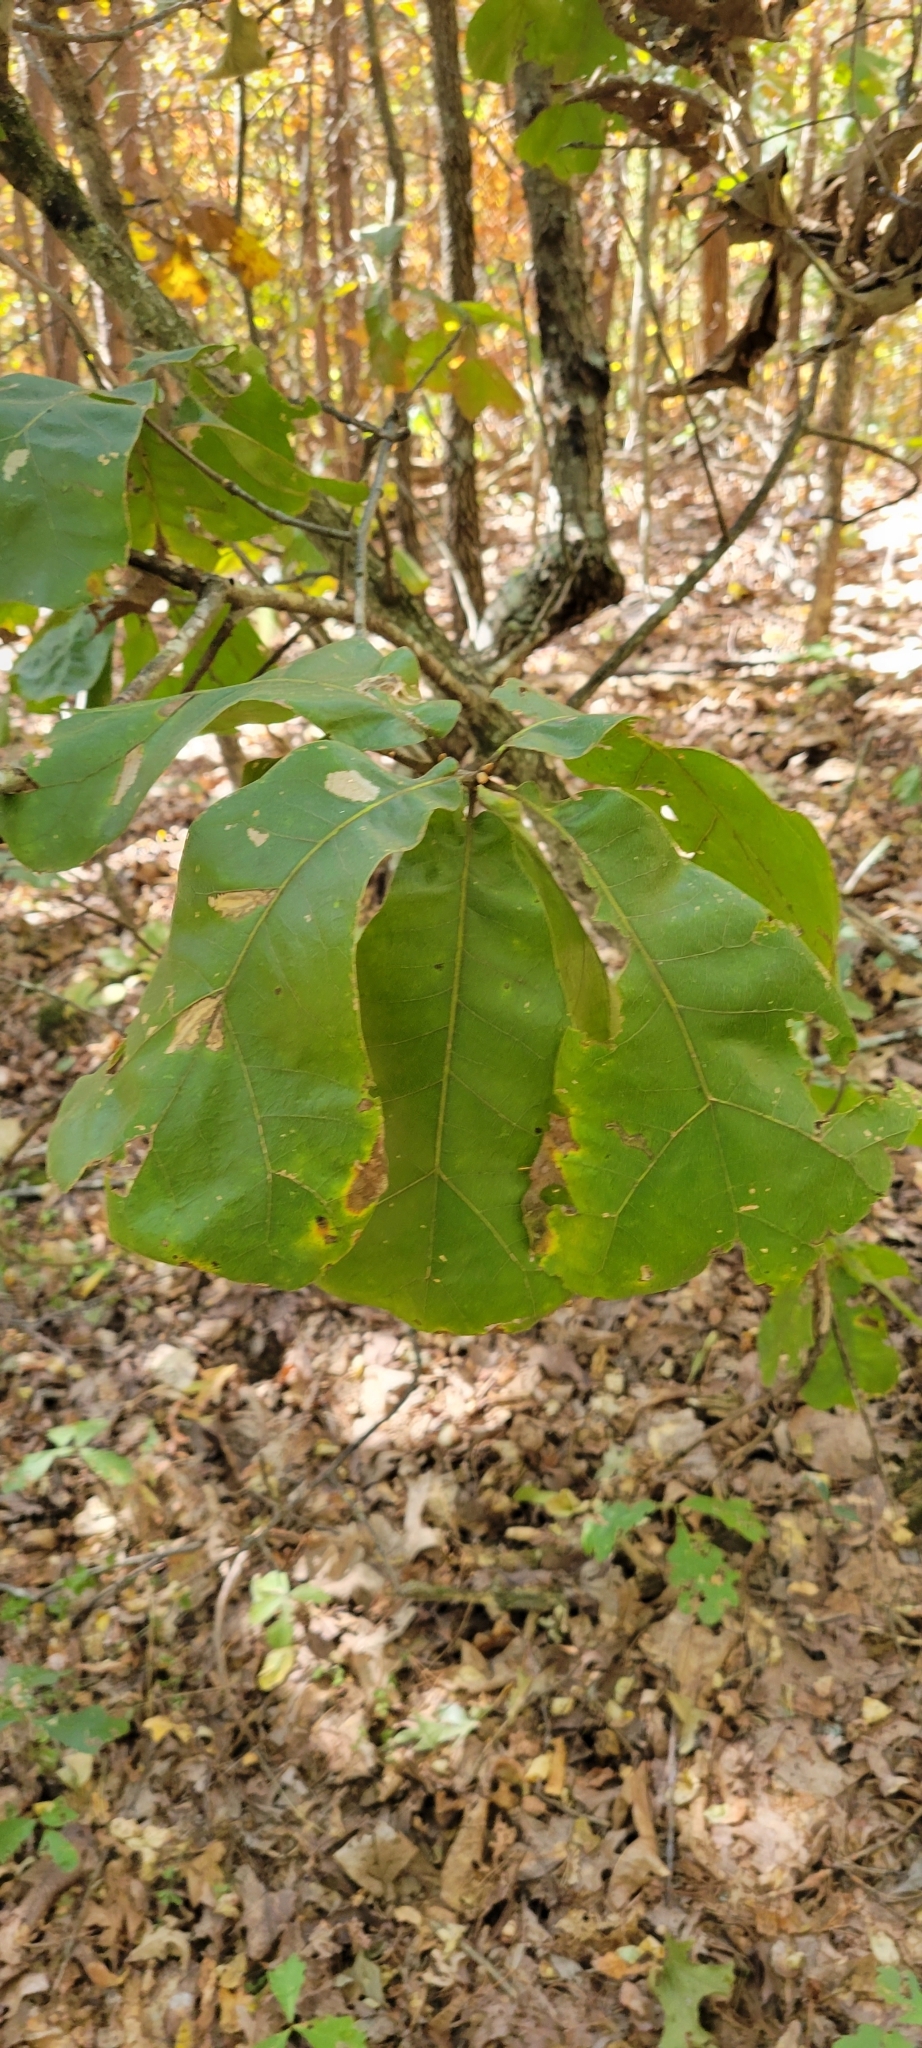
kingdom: Plantae
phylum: Tracheophyta
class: Magnoliopsida
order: Fagales
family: Fagaceae
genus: Quercus
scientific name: Quercus marilandica
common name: Blackjack oak
